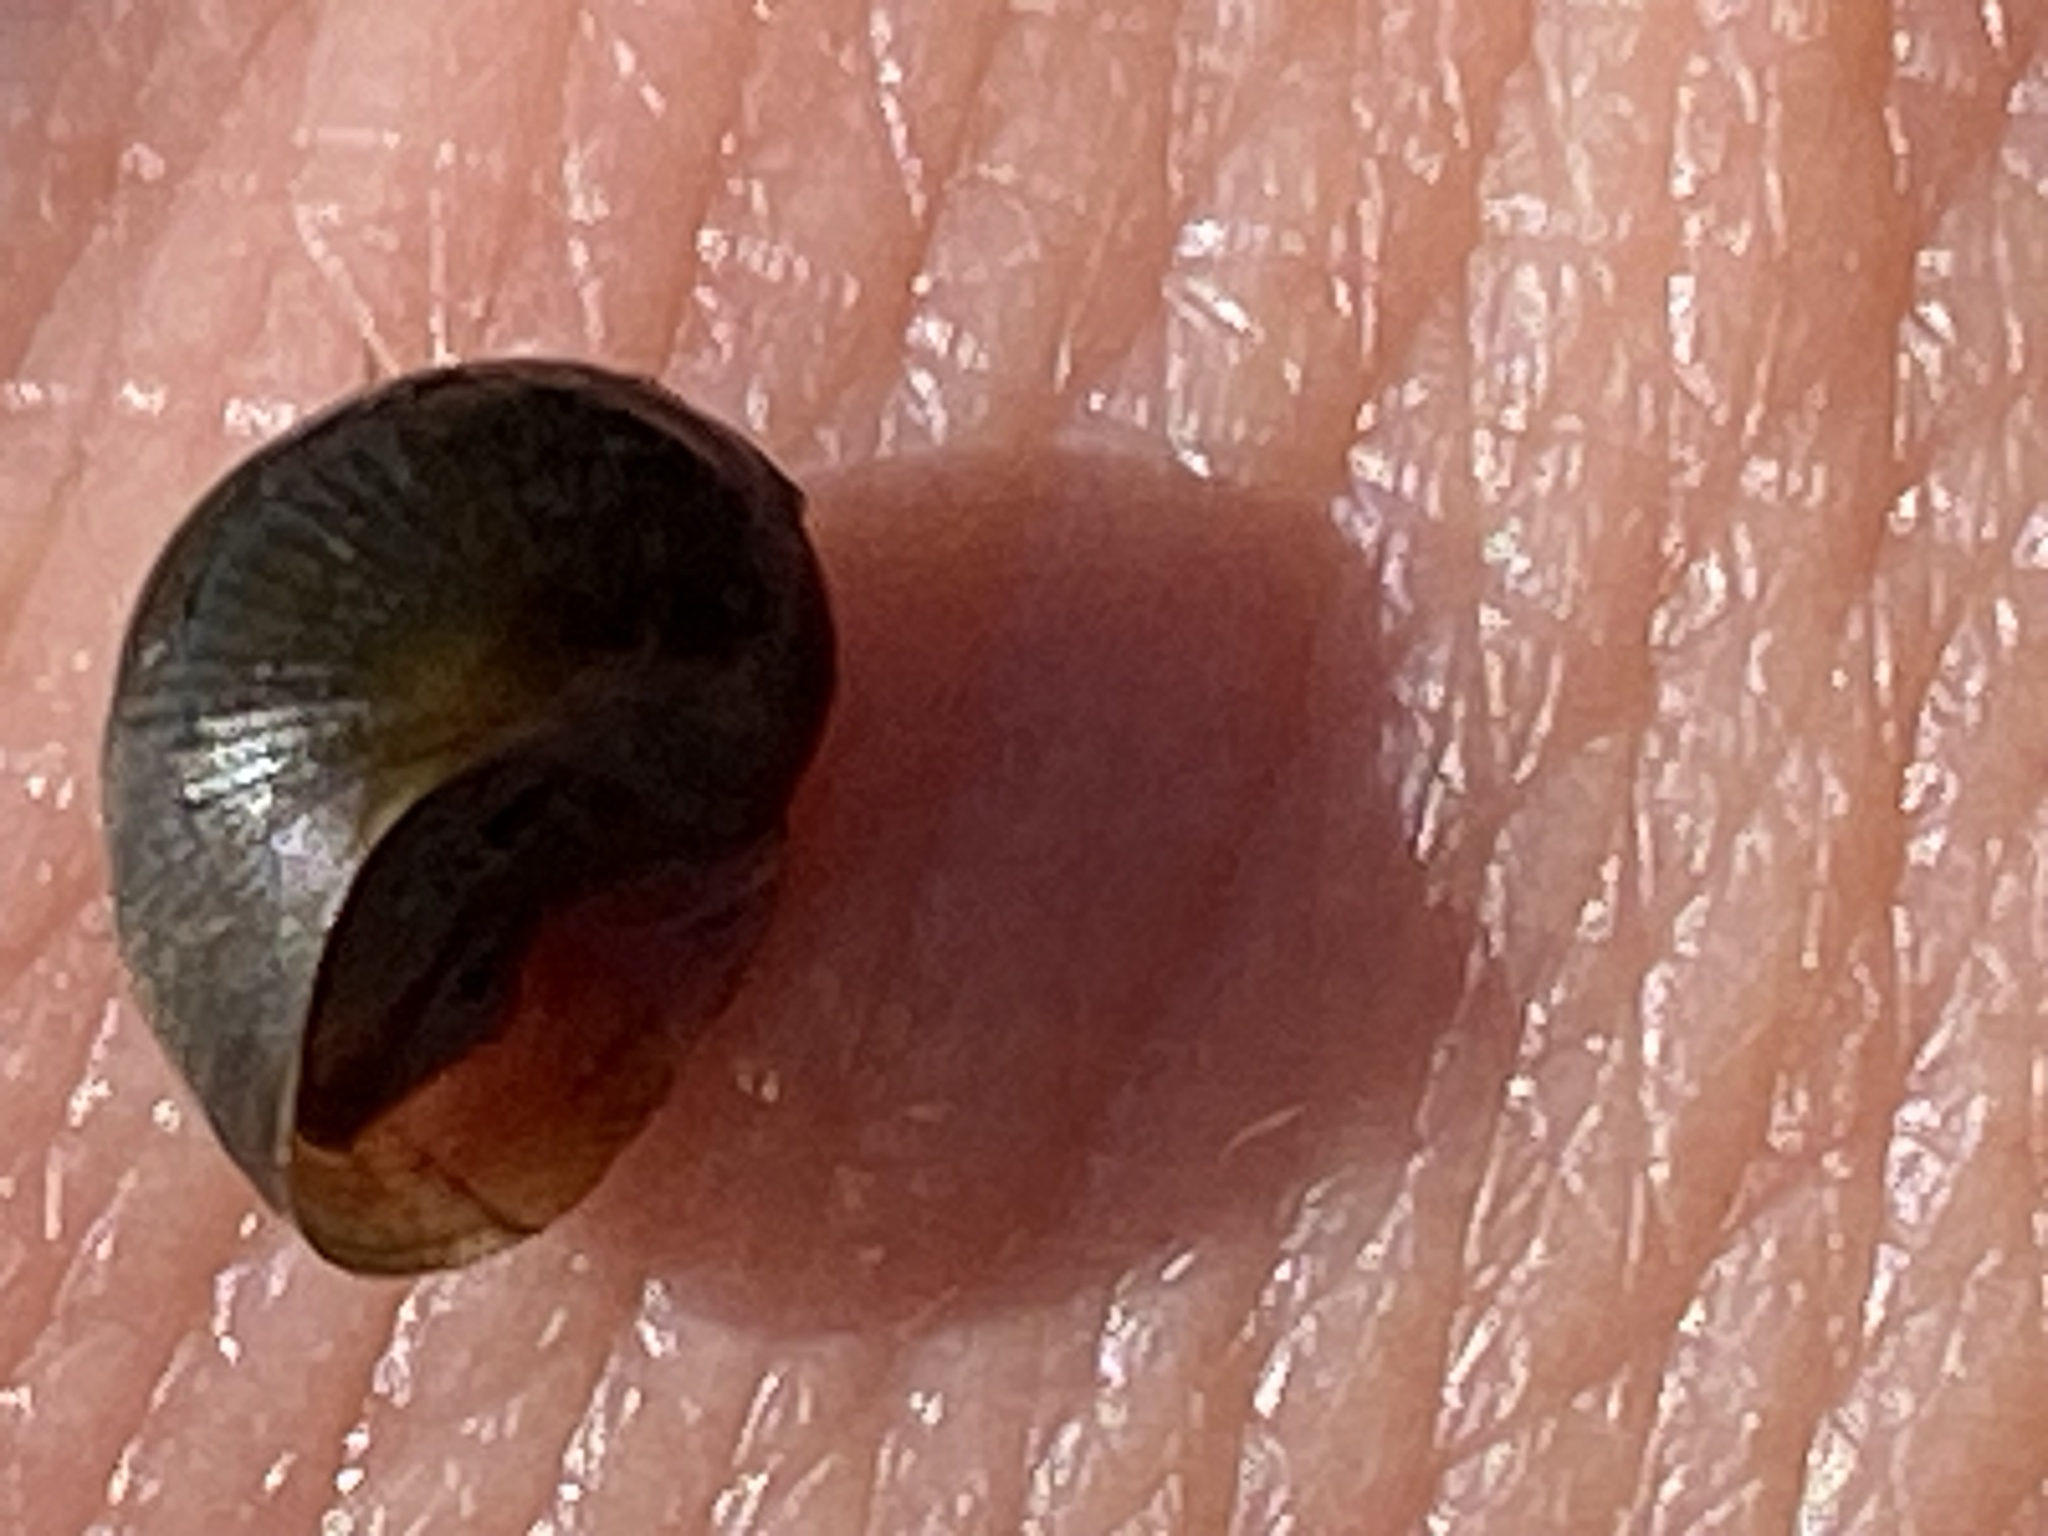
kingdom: Animalia
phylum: Mollusca
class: Gastropoda
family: Planorbidae
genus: Planorbella
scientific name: Planorbella trivolvis
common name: Marsh rams-horn
